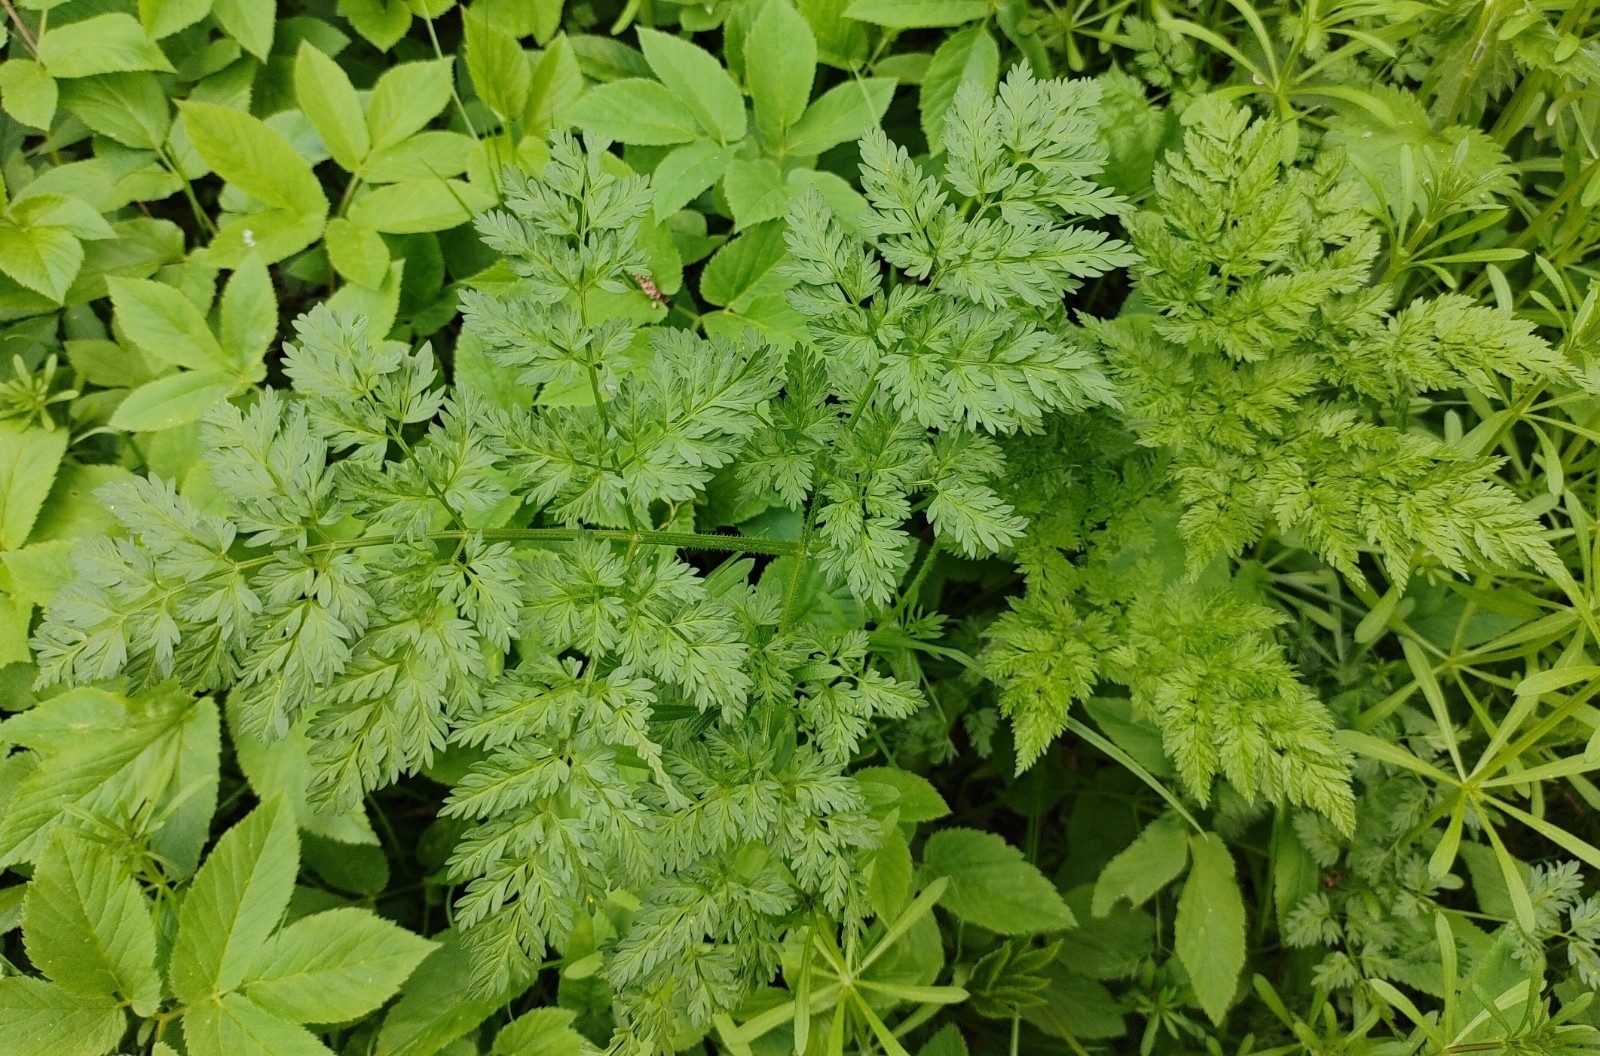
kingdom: Plantae
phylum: Tracheophyta
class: Magnoliopsida
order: Apiales
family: Apiaceae
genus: Anthriscus
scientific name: Anthriscus sylvestris
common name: Cow parsley
